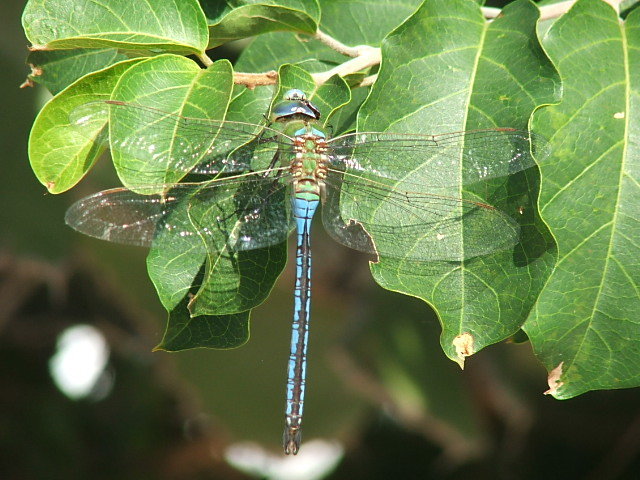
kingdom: Animalia
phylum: Arthropoda
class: Insecta
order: Odonata
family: Aeshnidae
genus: Anax
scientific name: Anax imperator
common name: Emperor dragonfly
